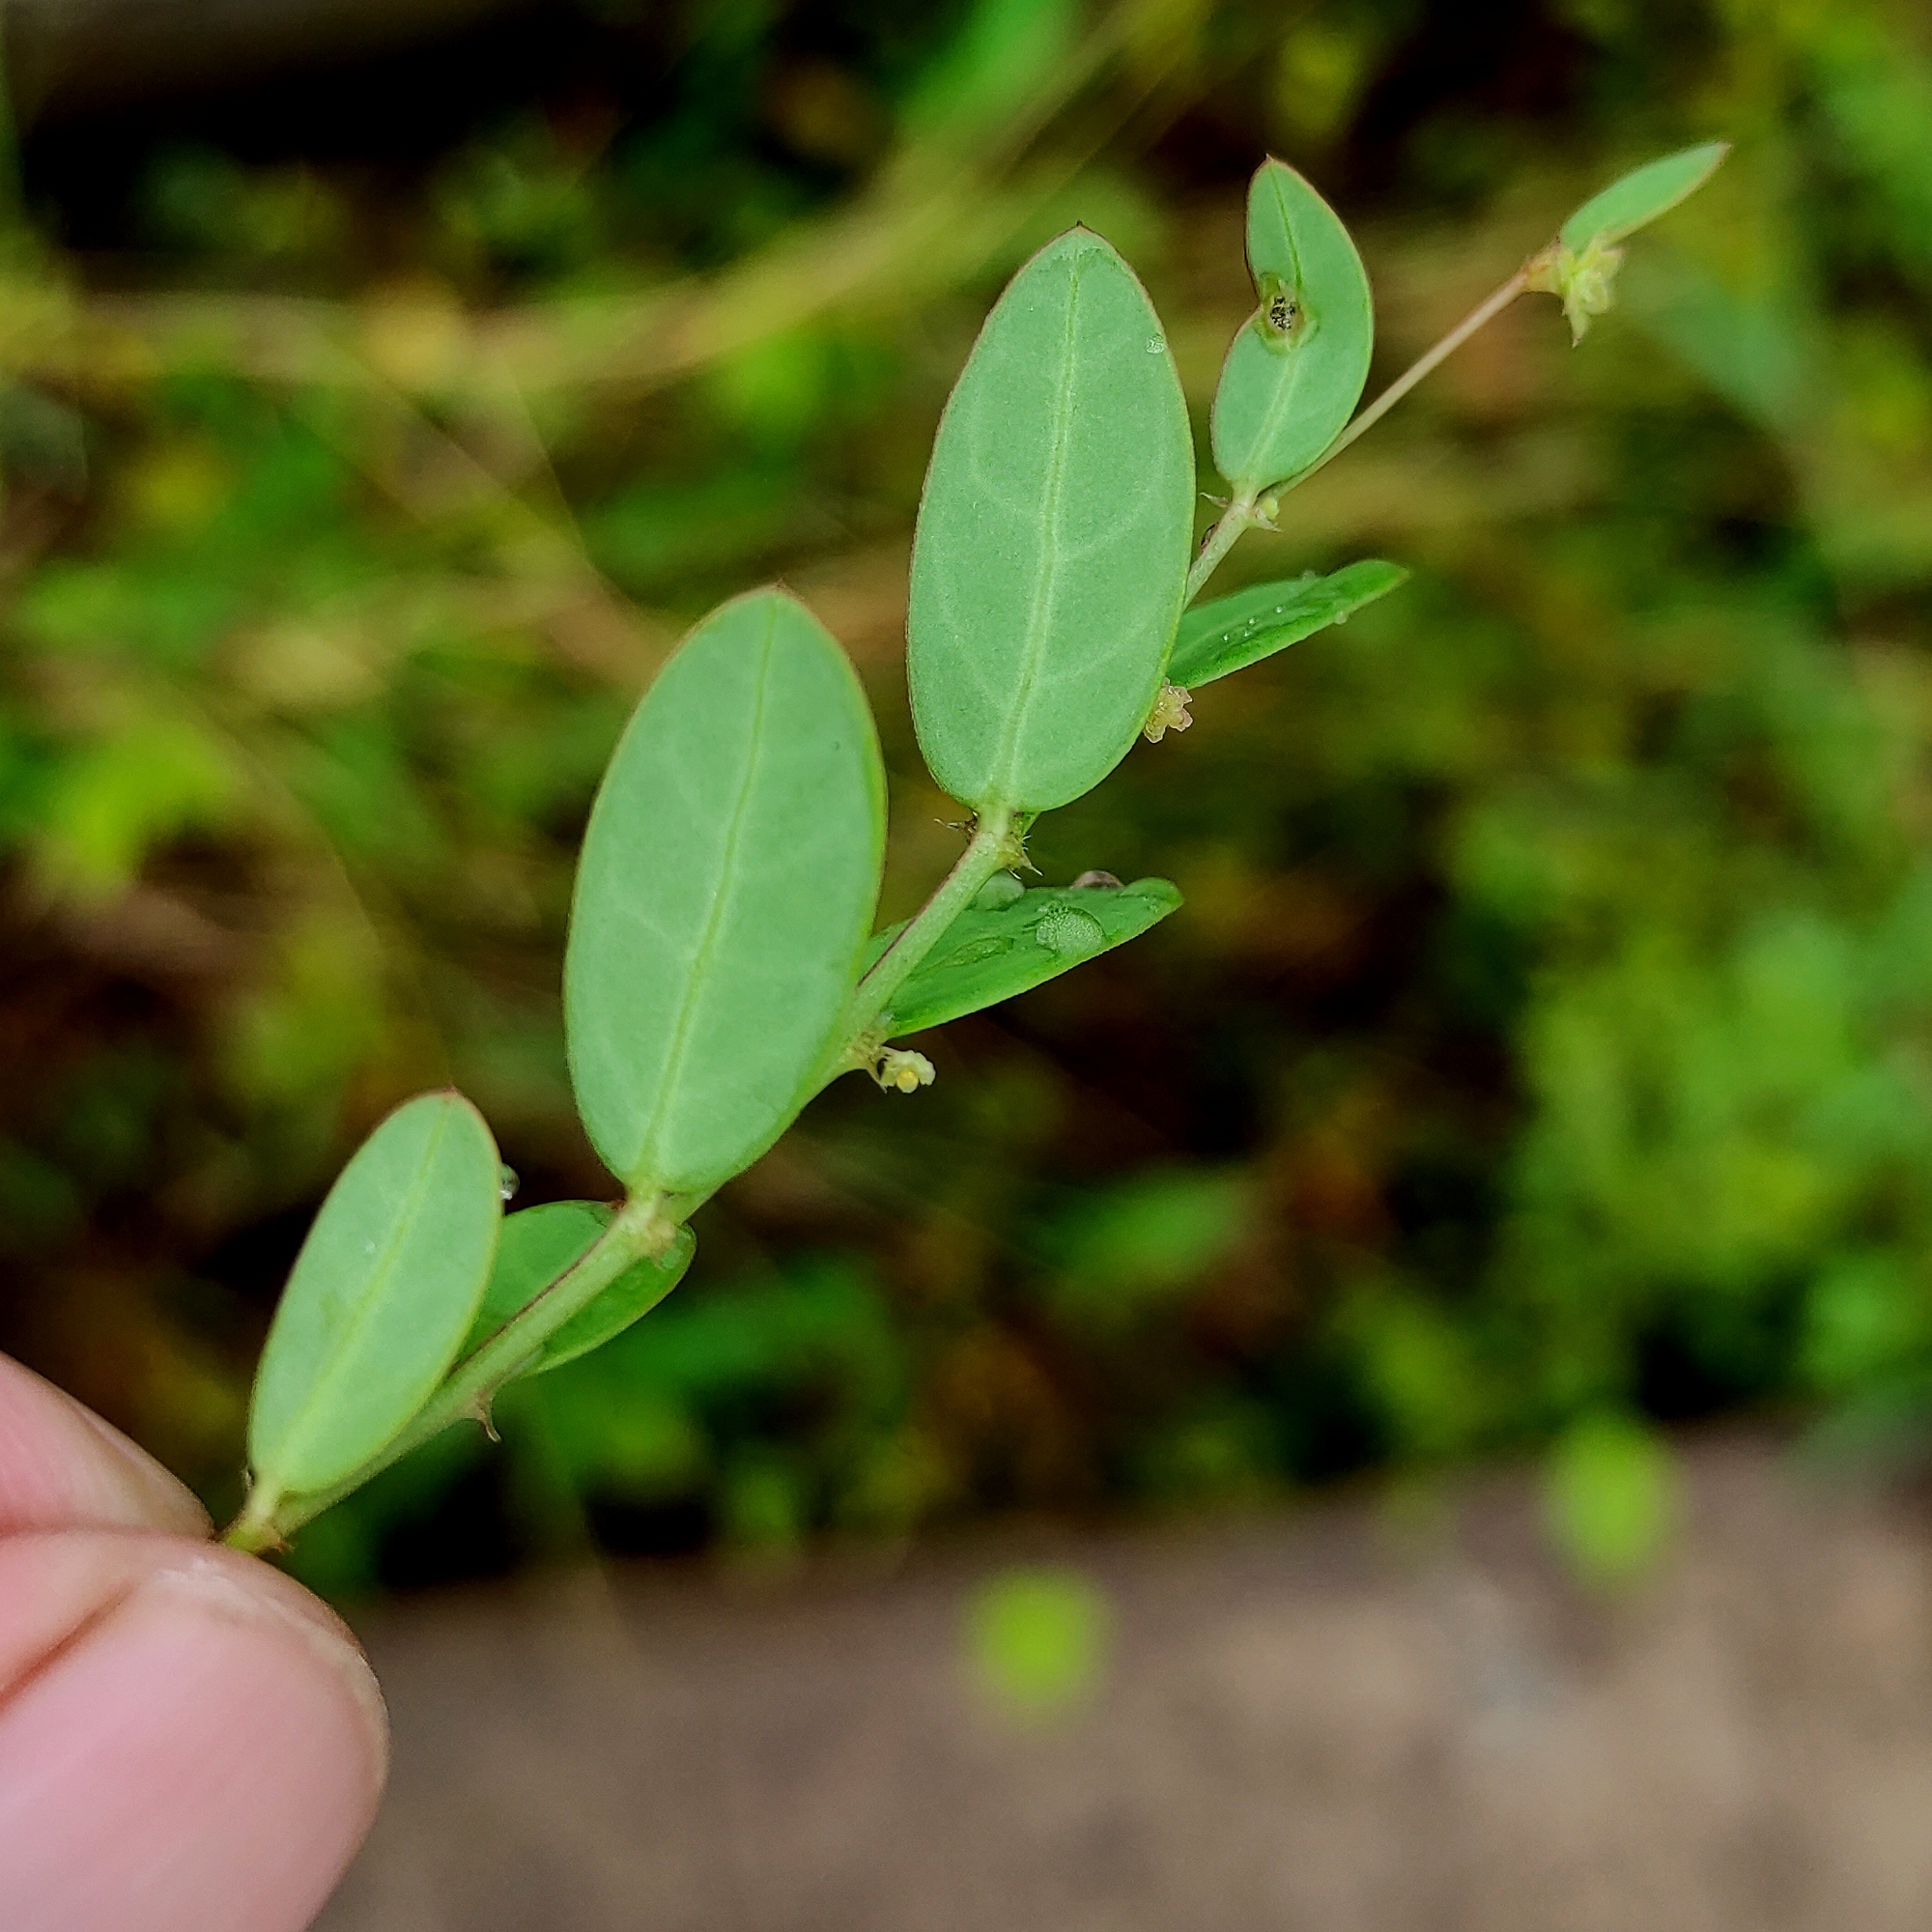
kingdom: Plantae
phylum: Tracheophyta
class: Magnoliopsida
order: Malpighiales
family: Phyllanthaceae
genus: Synostemon
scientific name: Synostemon bacciformis
